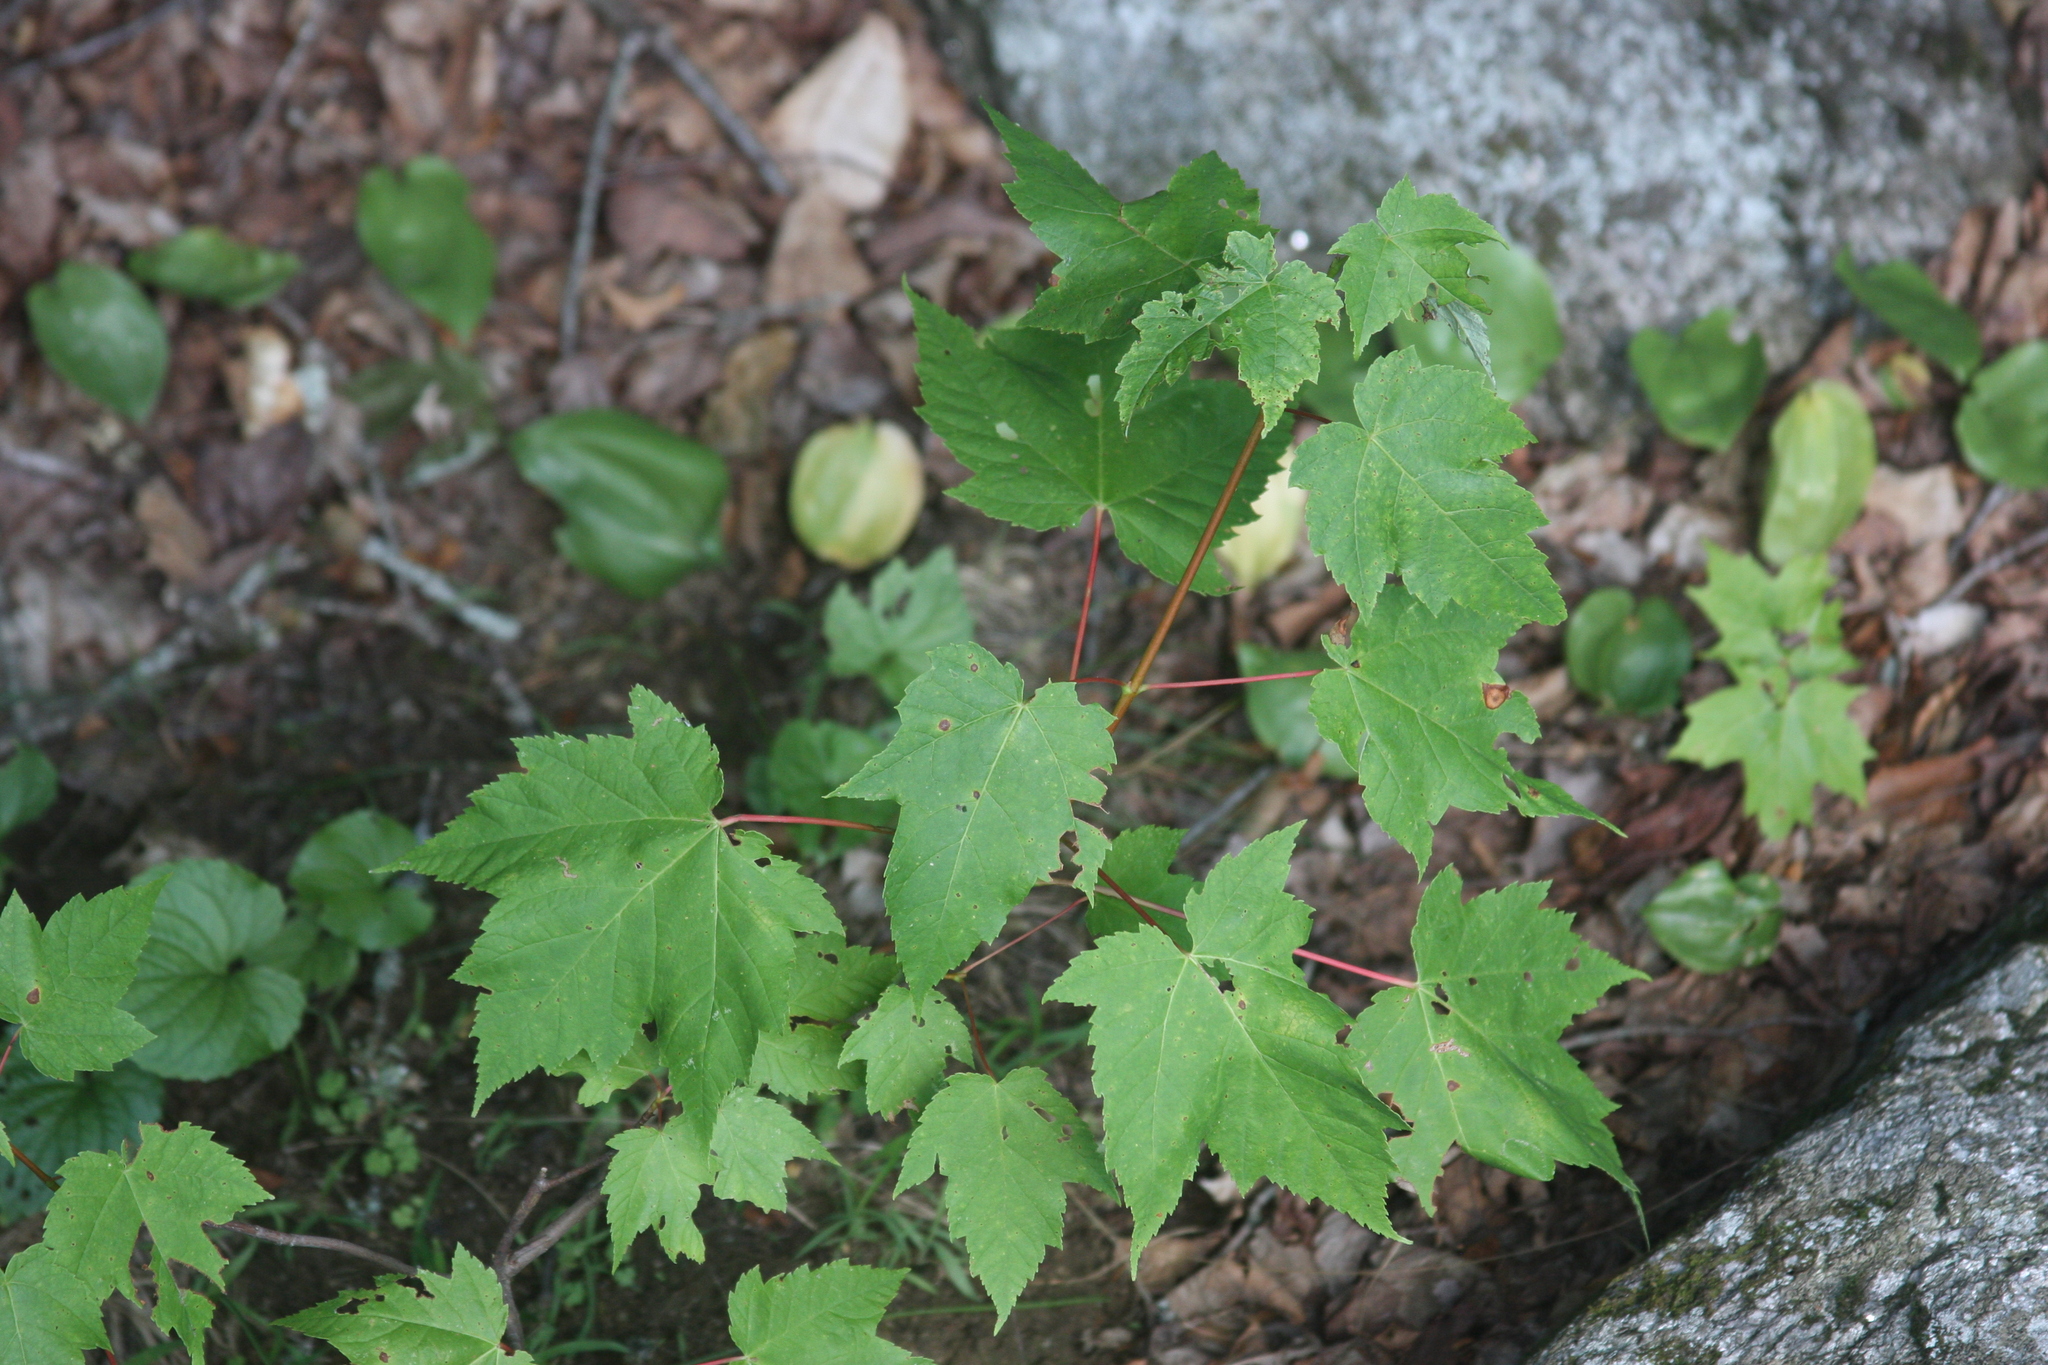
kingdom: Plantae
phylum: Tracheophyta
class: Magnoliopsida
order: Sapindales
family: Sapindaceae
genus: Acer
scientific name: Acer rubrum
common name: Red maple
